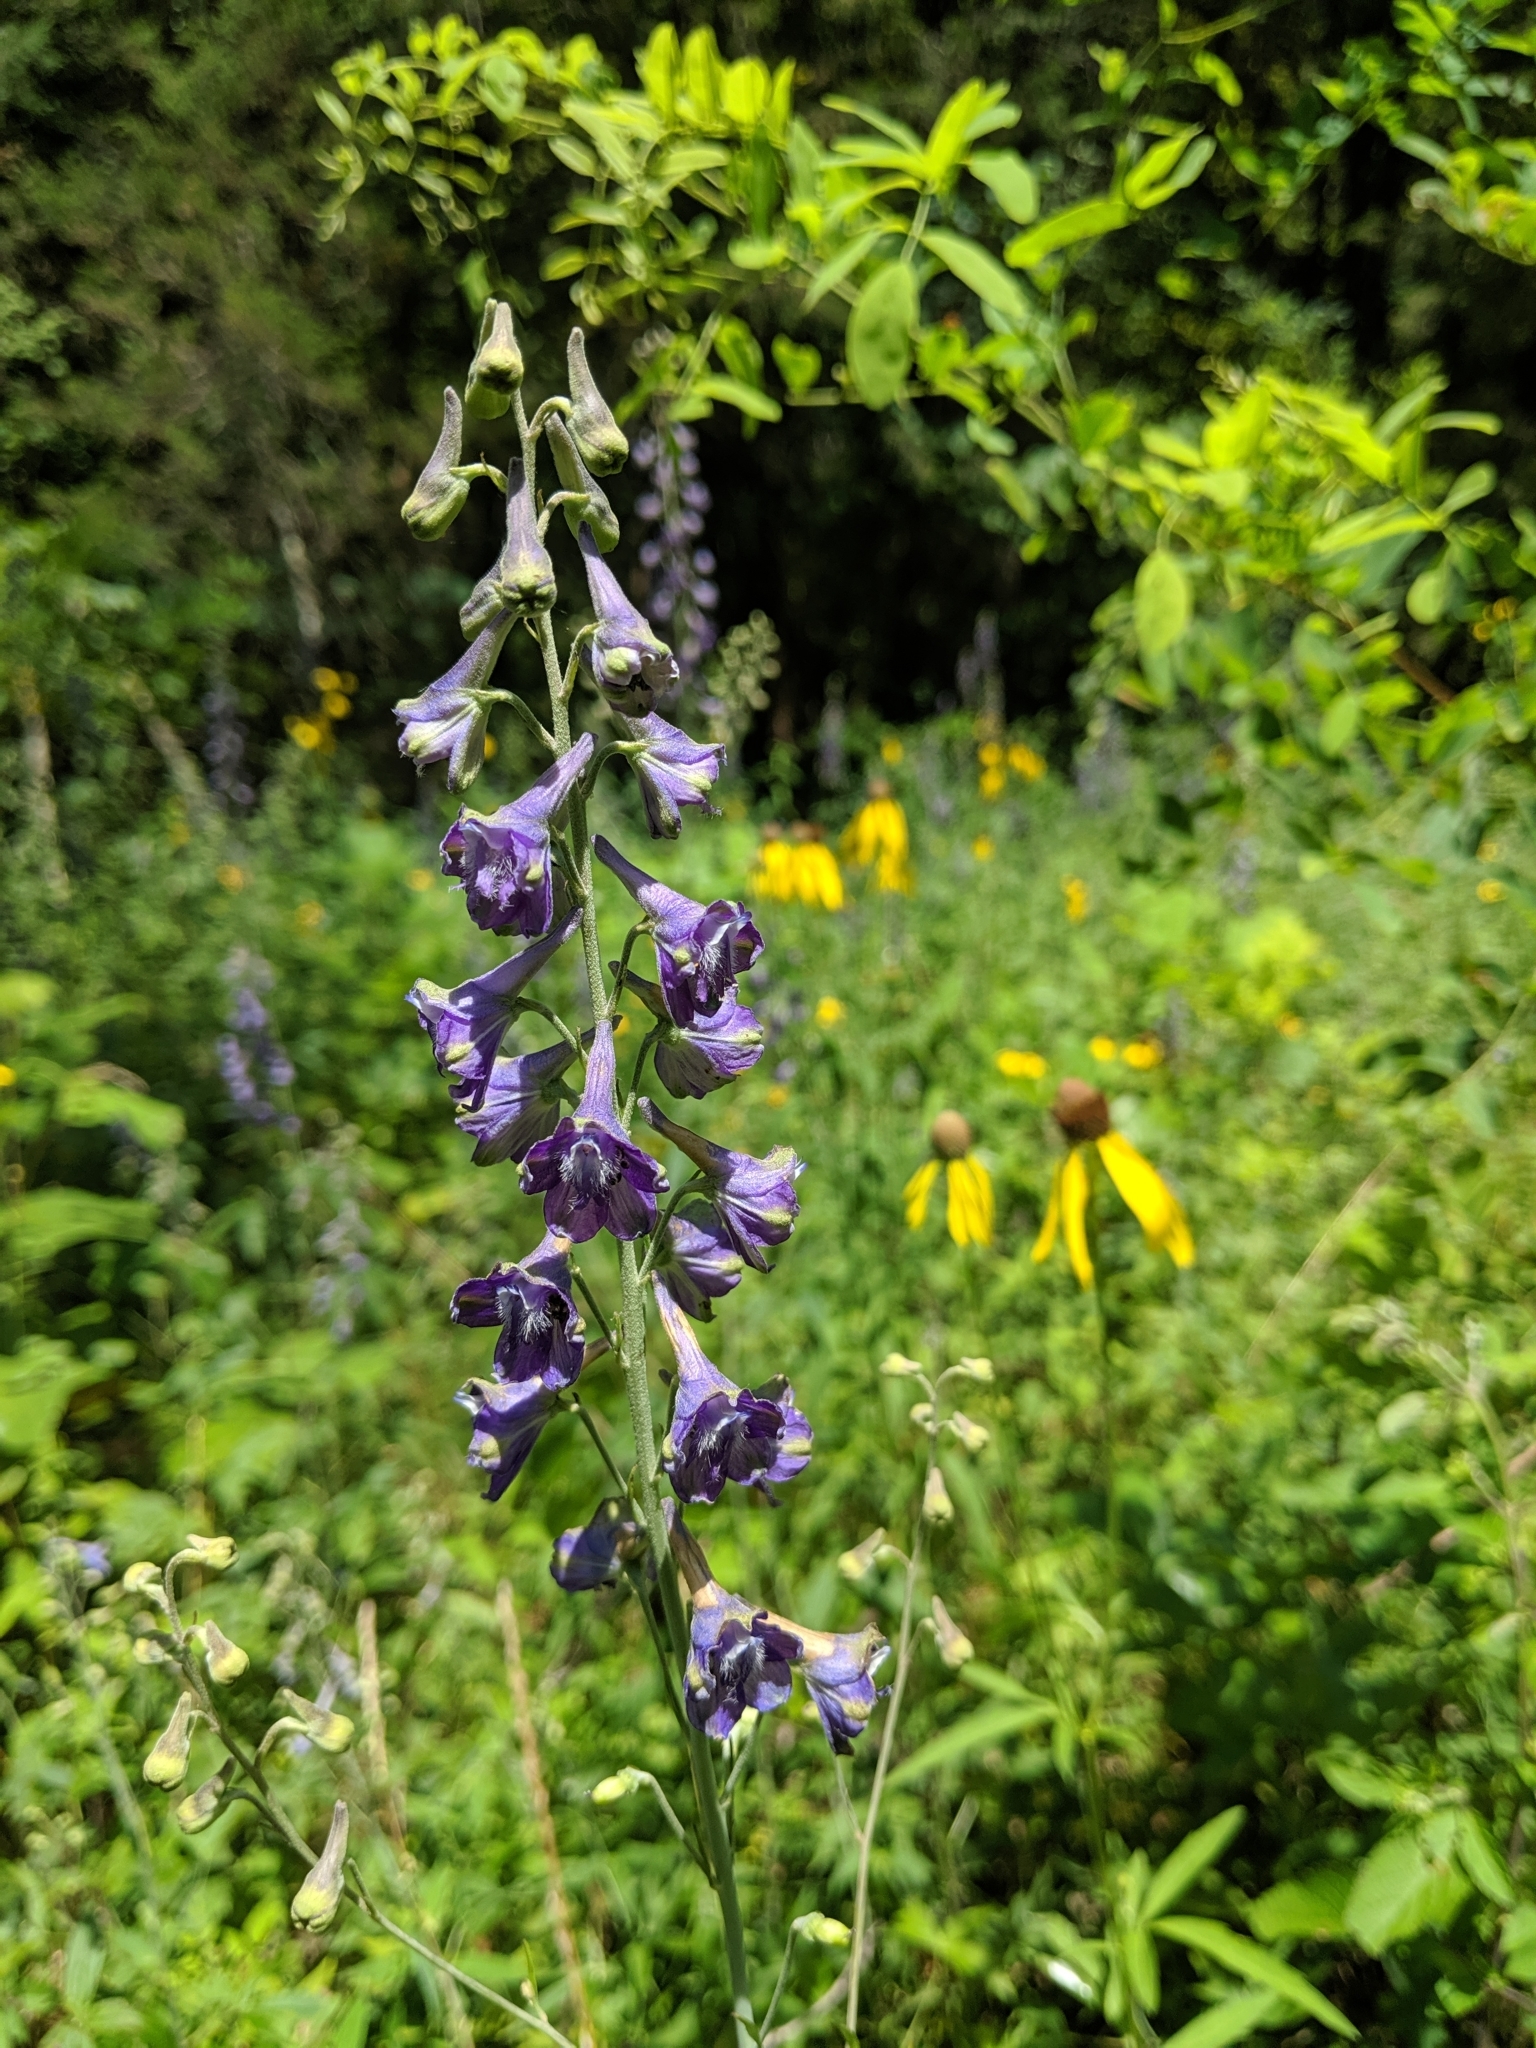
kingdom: Plantae
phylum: Tracheophyta
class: Magnoliopsida
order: Ranunculales
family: Ranunculaceae
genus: Delphinium
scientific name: Delphinium exaltatum
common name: Tall larkspur
